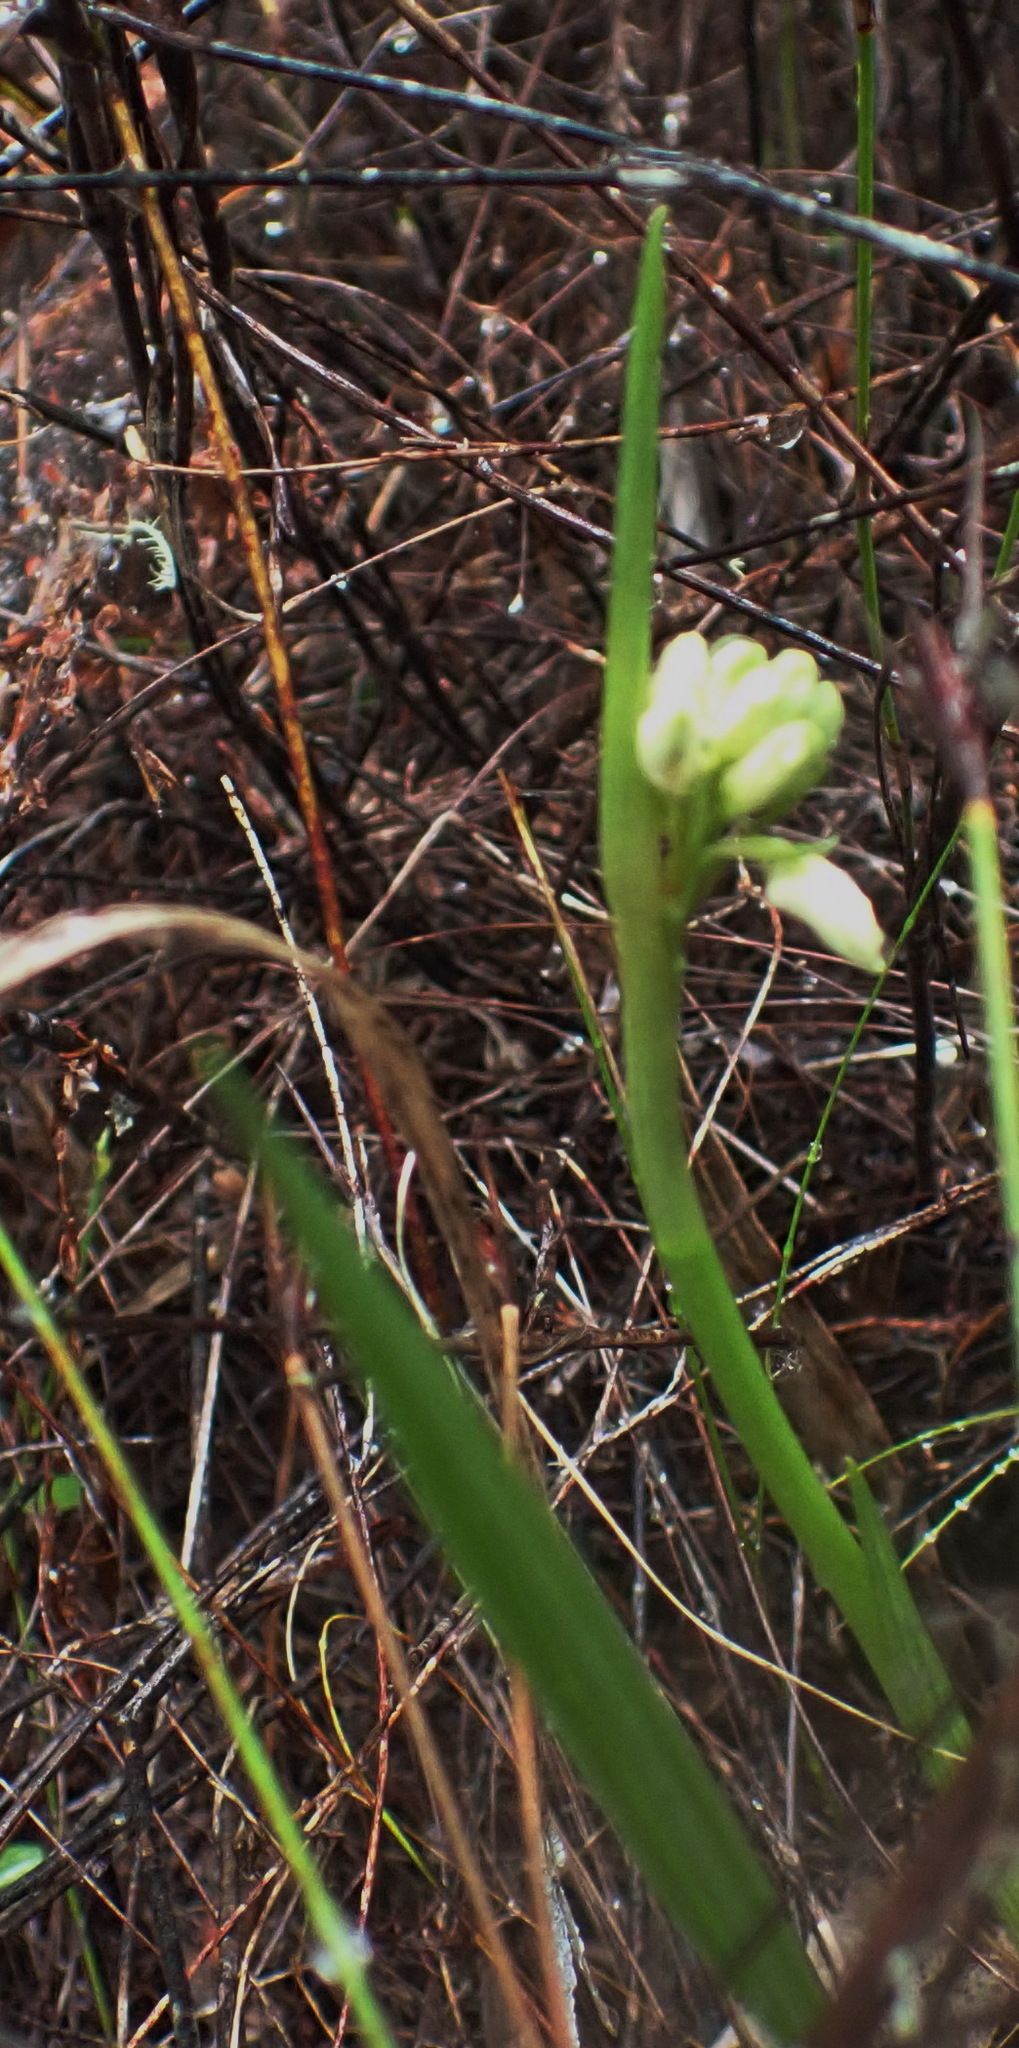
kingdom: Plantae
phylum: Tracheophyta
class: Liliopsida
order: Asparagales
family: Orchidaceae
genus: Eulophia
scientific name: Eulophia aculeata
